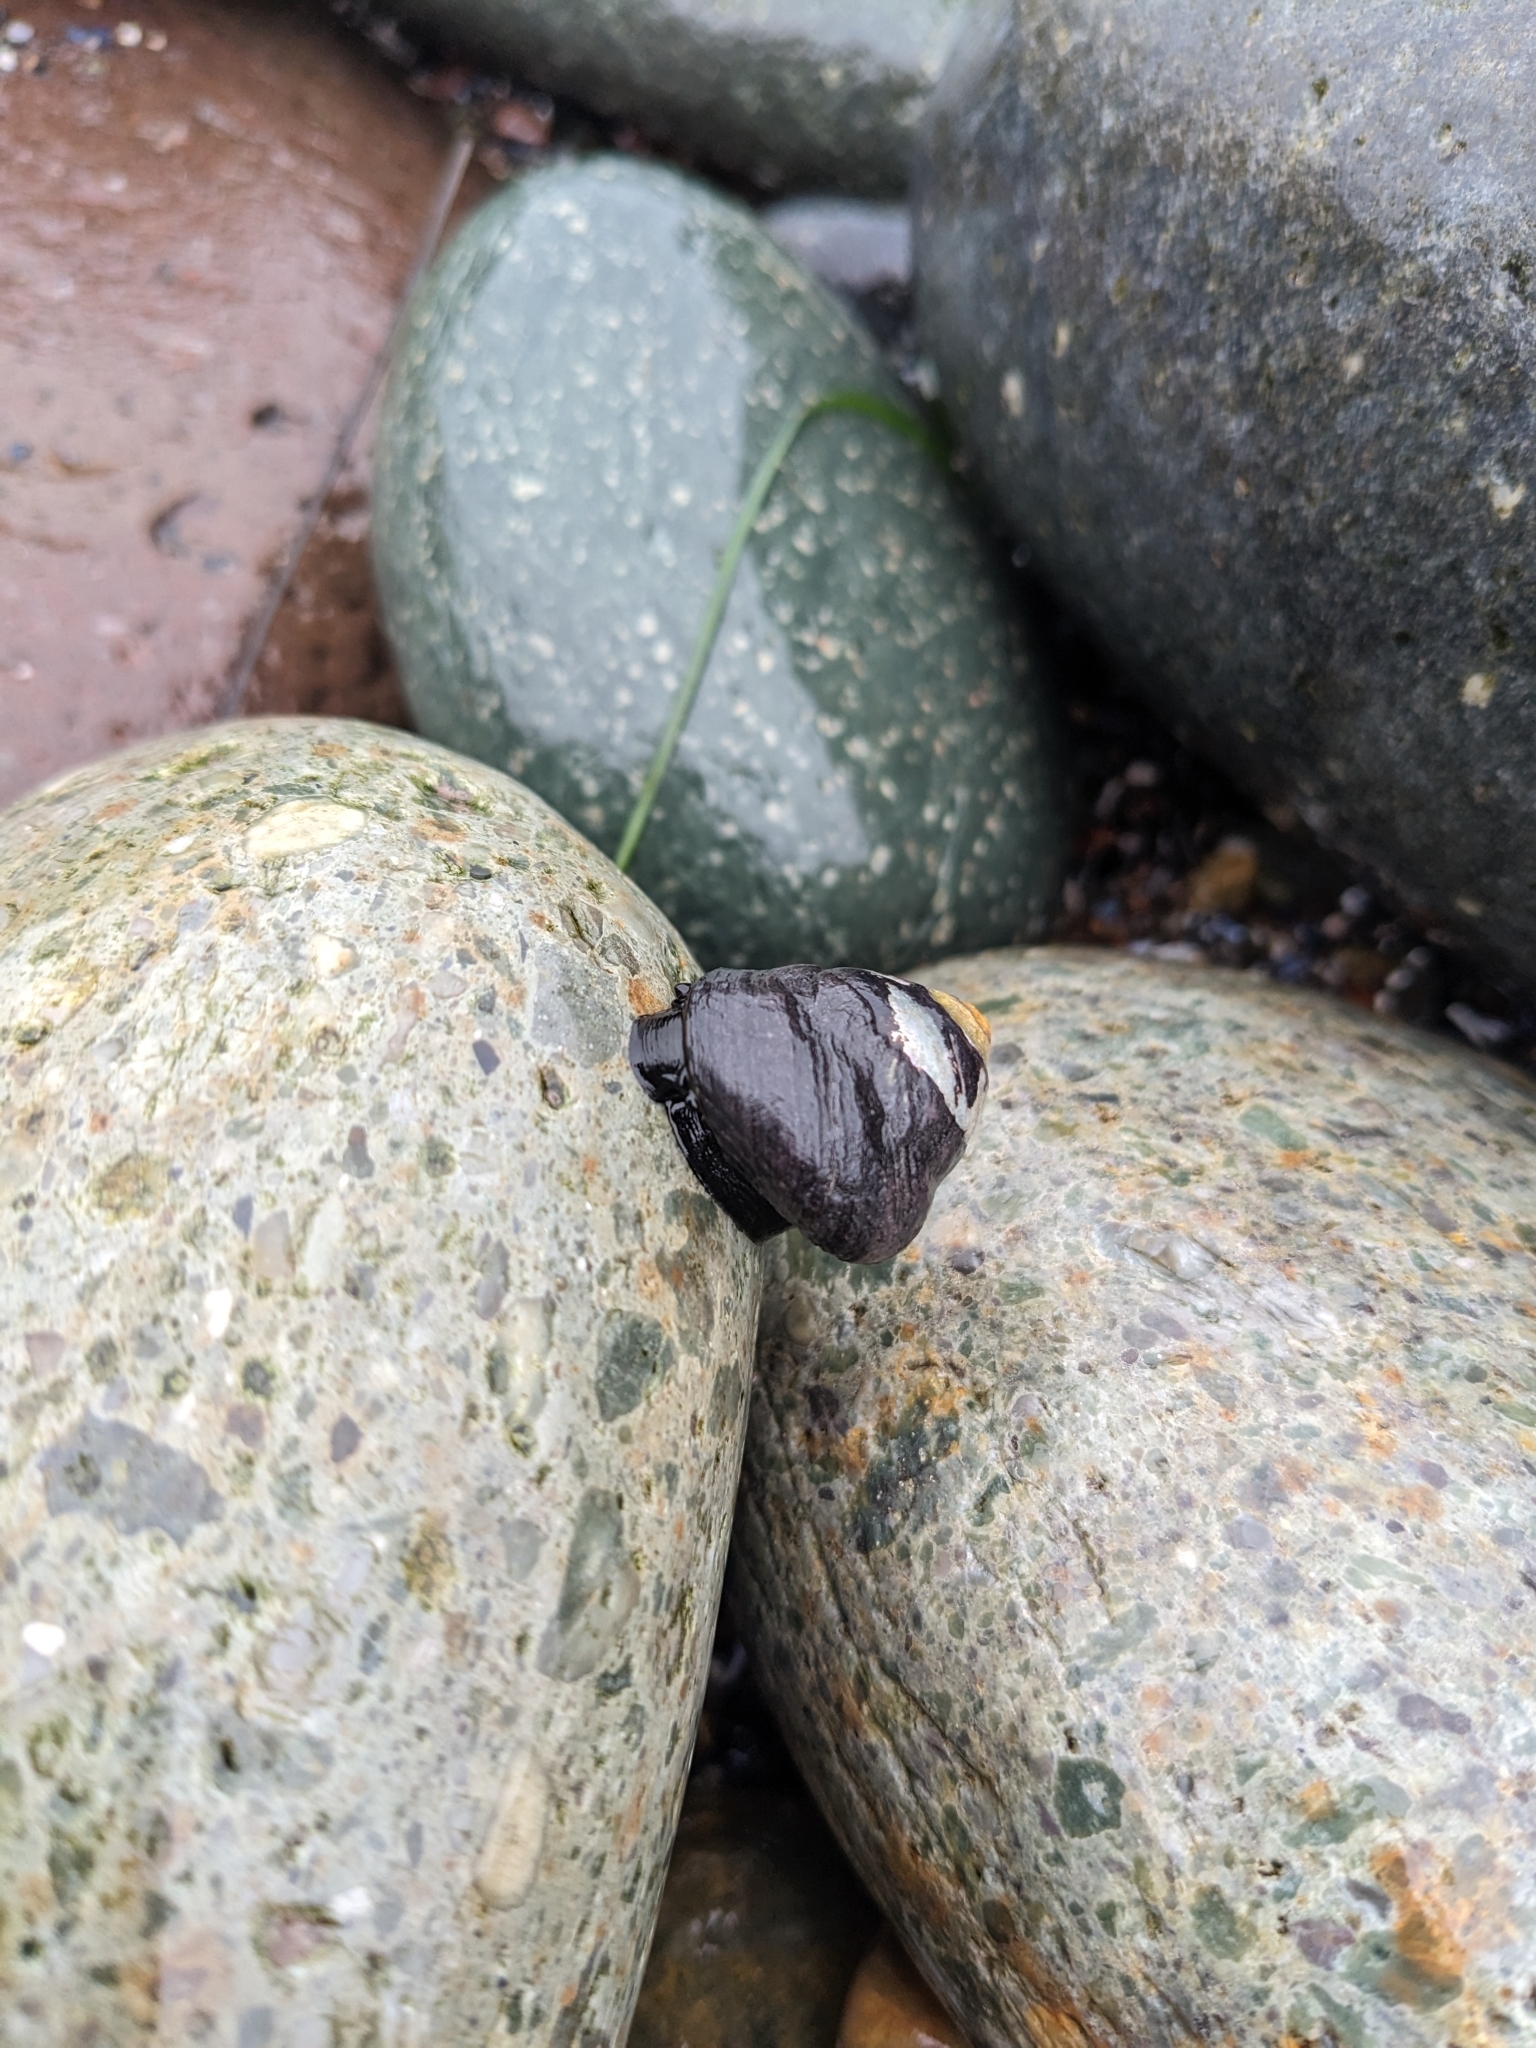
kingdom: Animalia
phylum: Mollusca
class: Gastropoda
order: Trochida
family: Tegulidae
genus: Tegula
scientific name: Tegula funebralis
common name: Black tegula
